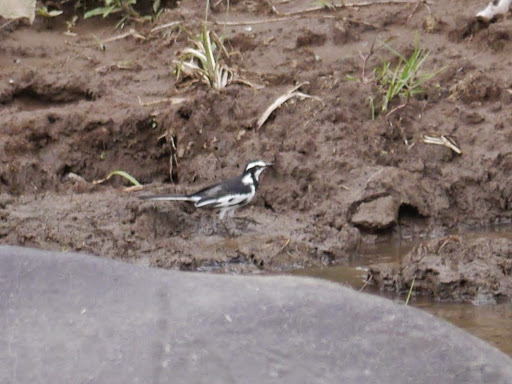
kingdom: Animalia
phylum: Chordata
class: Aves
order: Passeriformes
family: Motacillidae
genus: Motacilla
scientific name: Motacilla aguimp
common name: African pied wagtail
